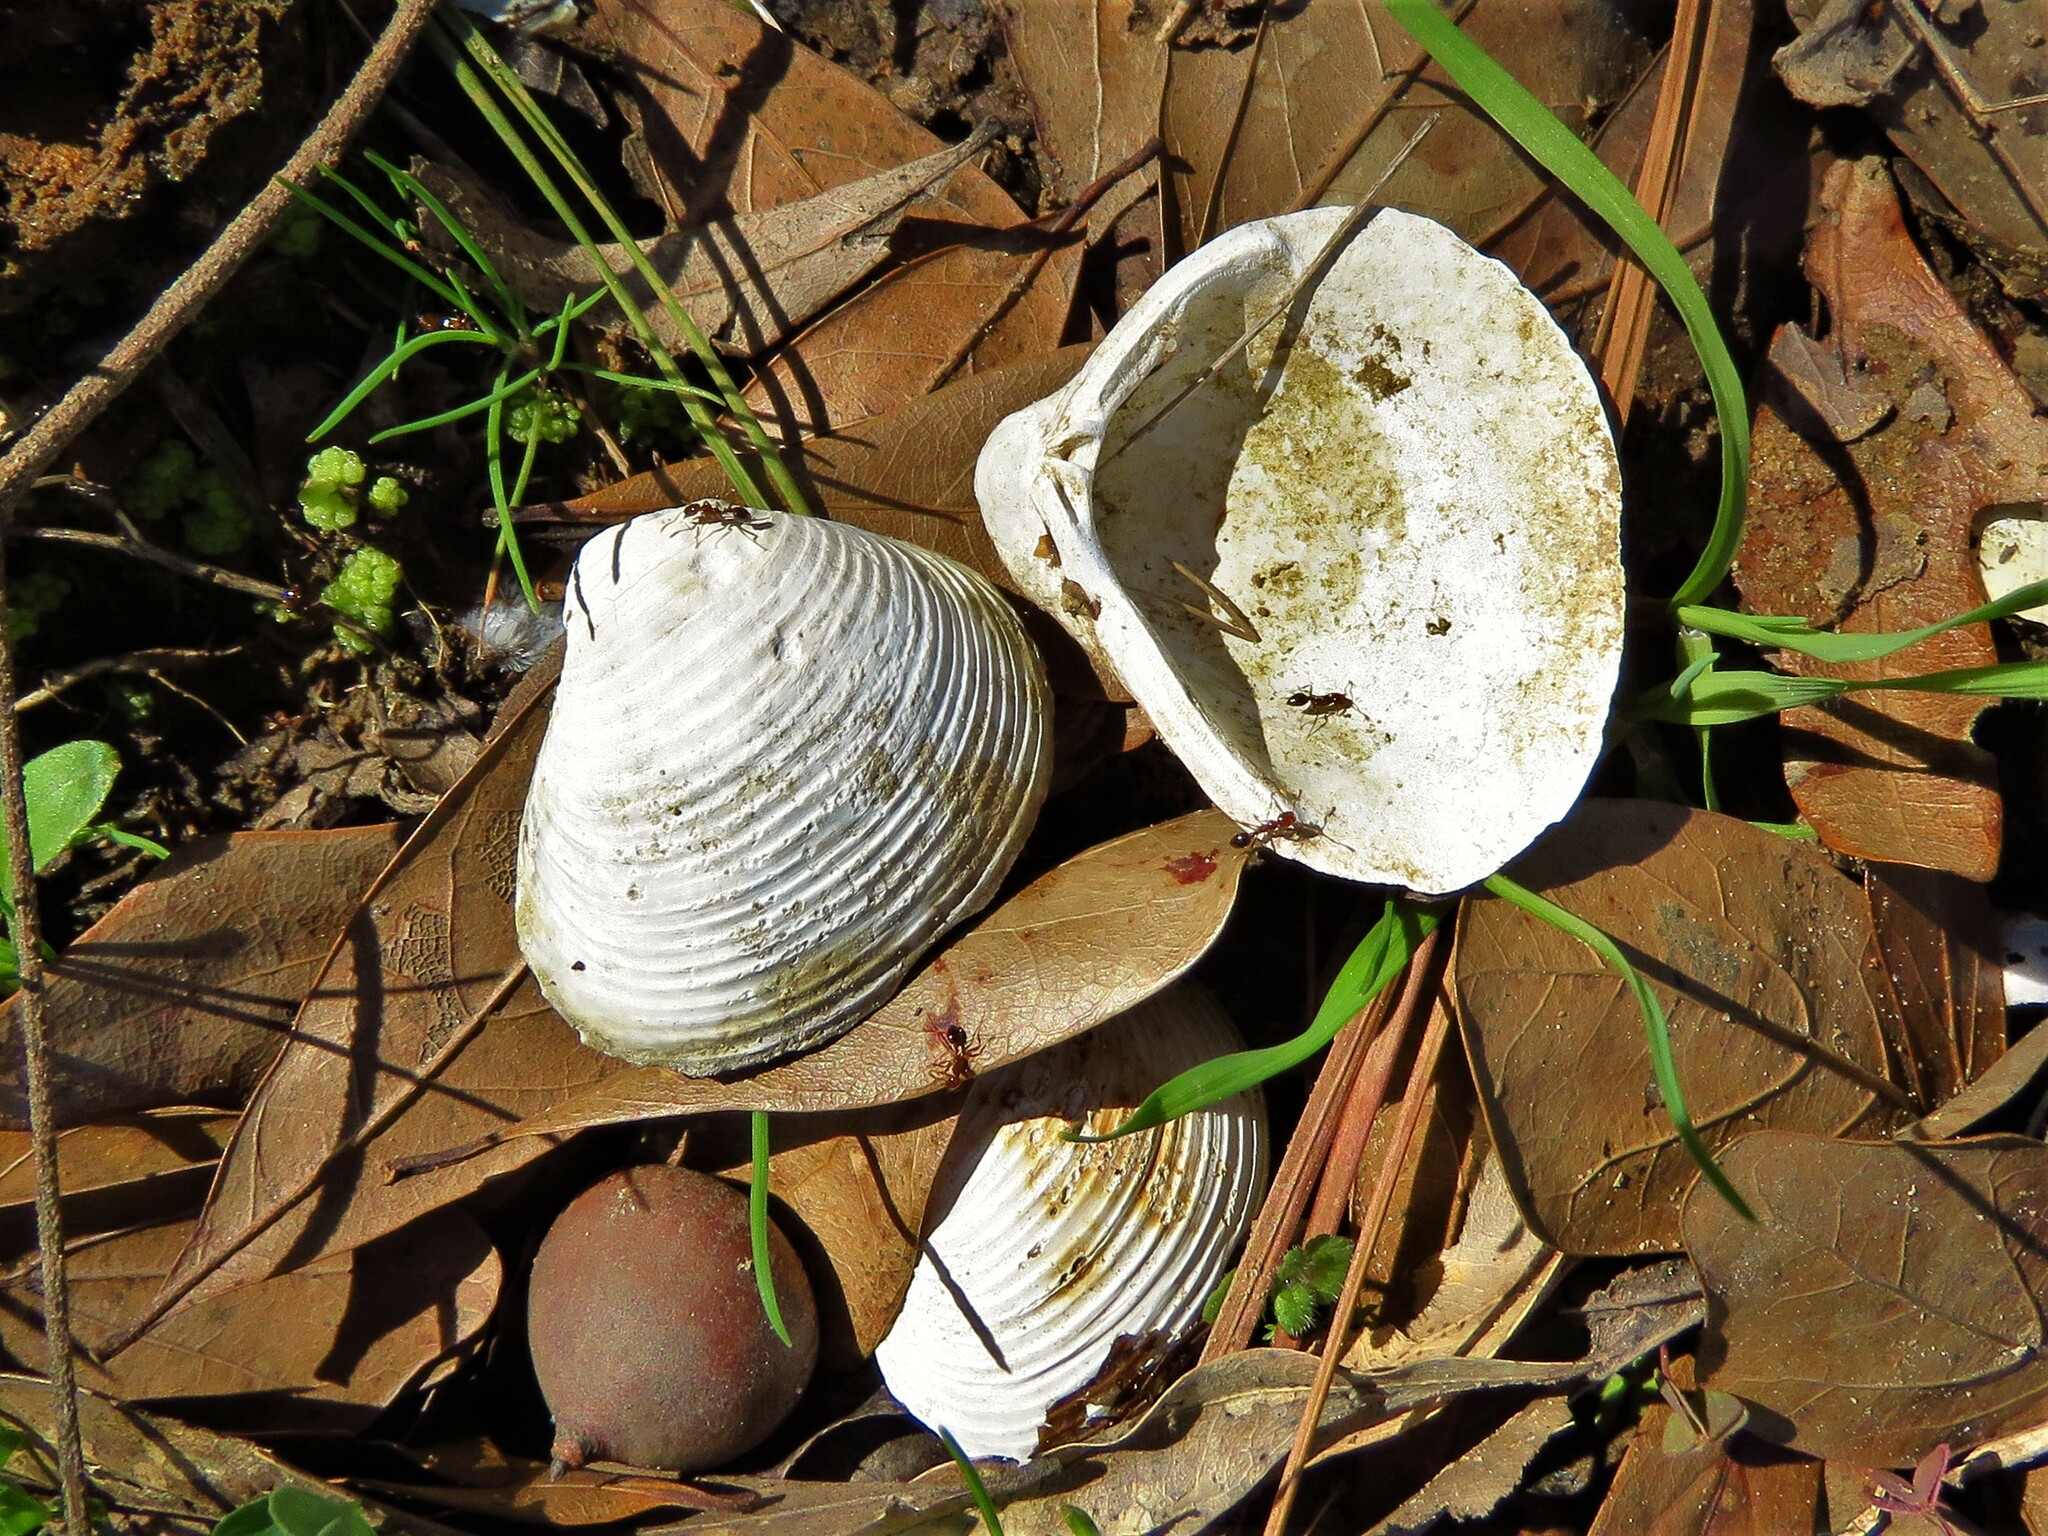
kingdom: Animalia
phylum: Mollusca
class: Bivalvia
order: Venerida
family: Cyrenidae
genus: Corbicula
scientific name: Corbicula fluminea
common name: Asian clam
